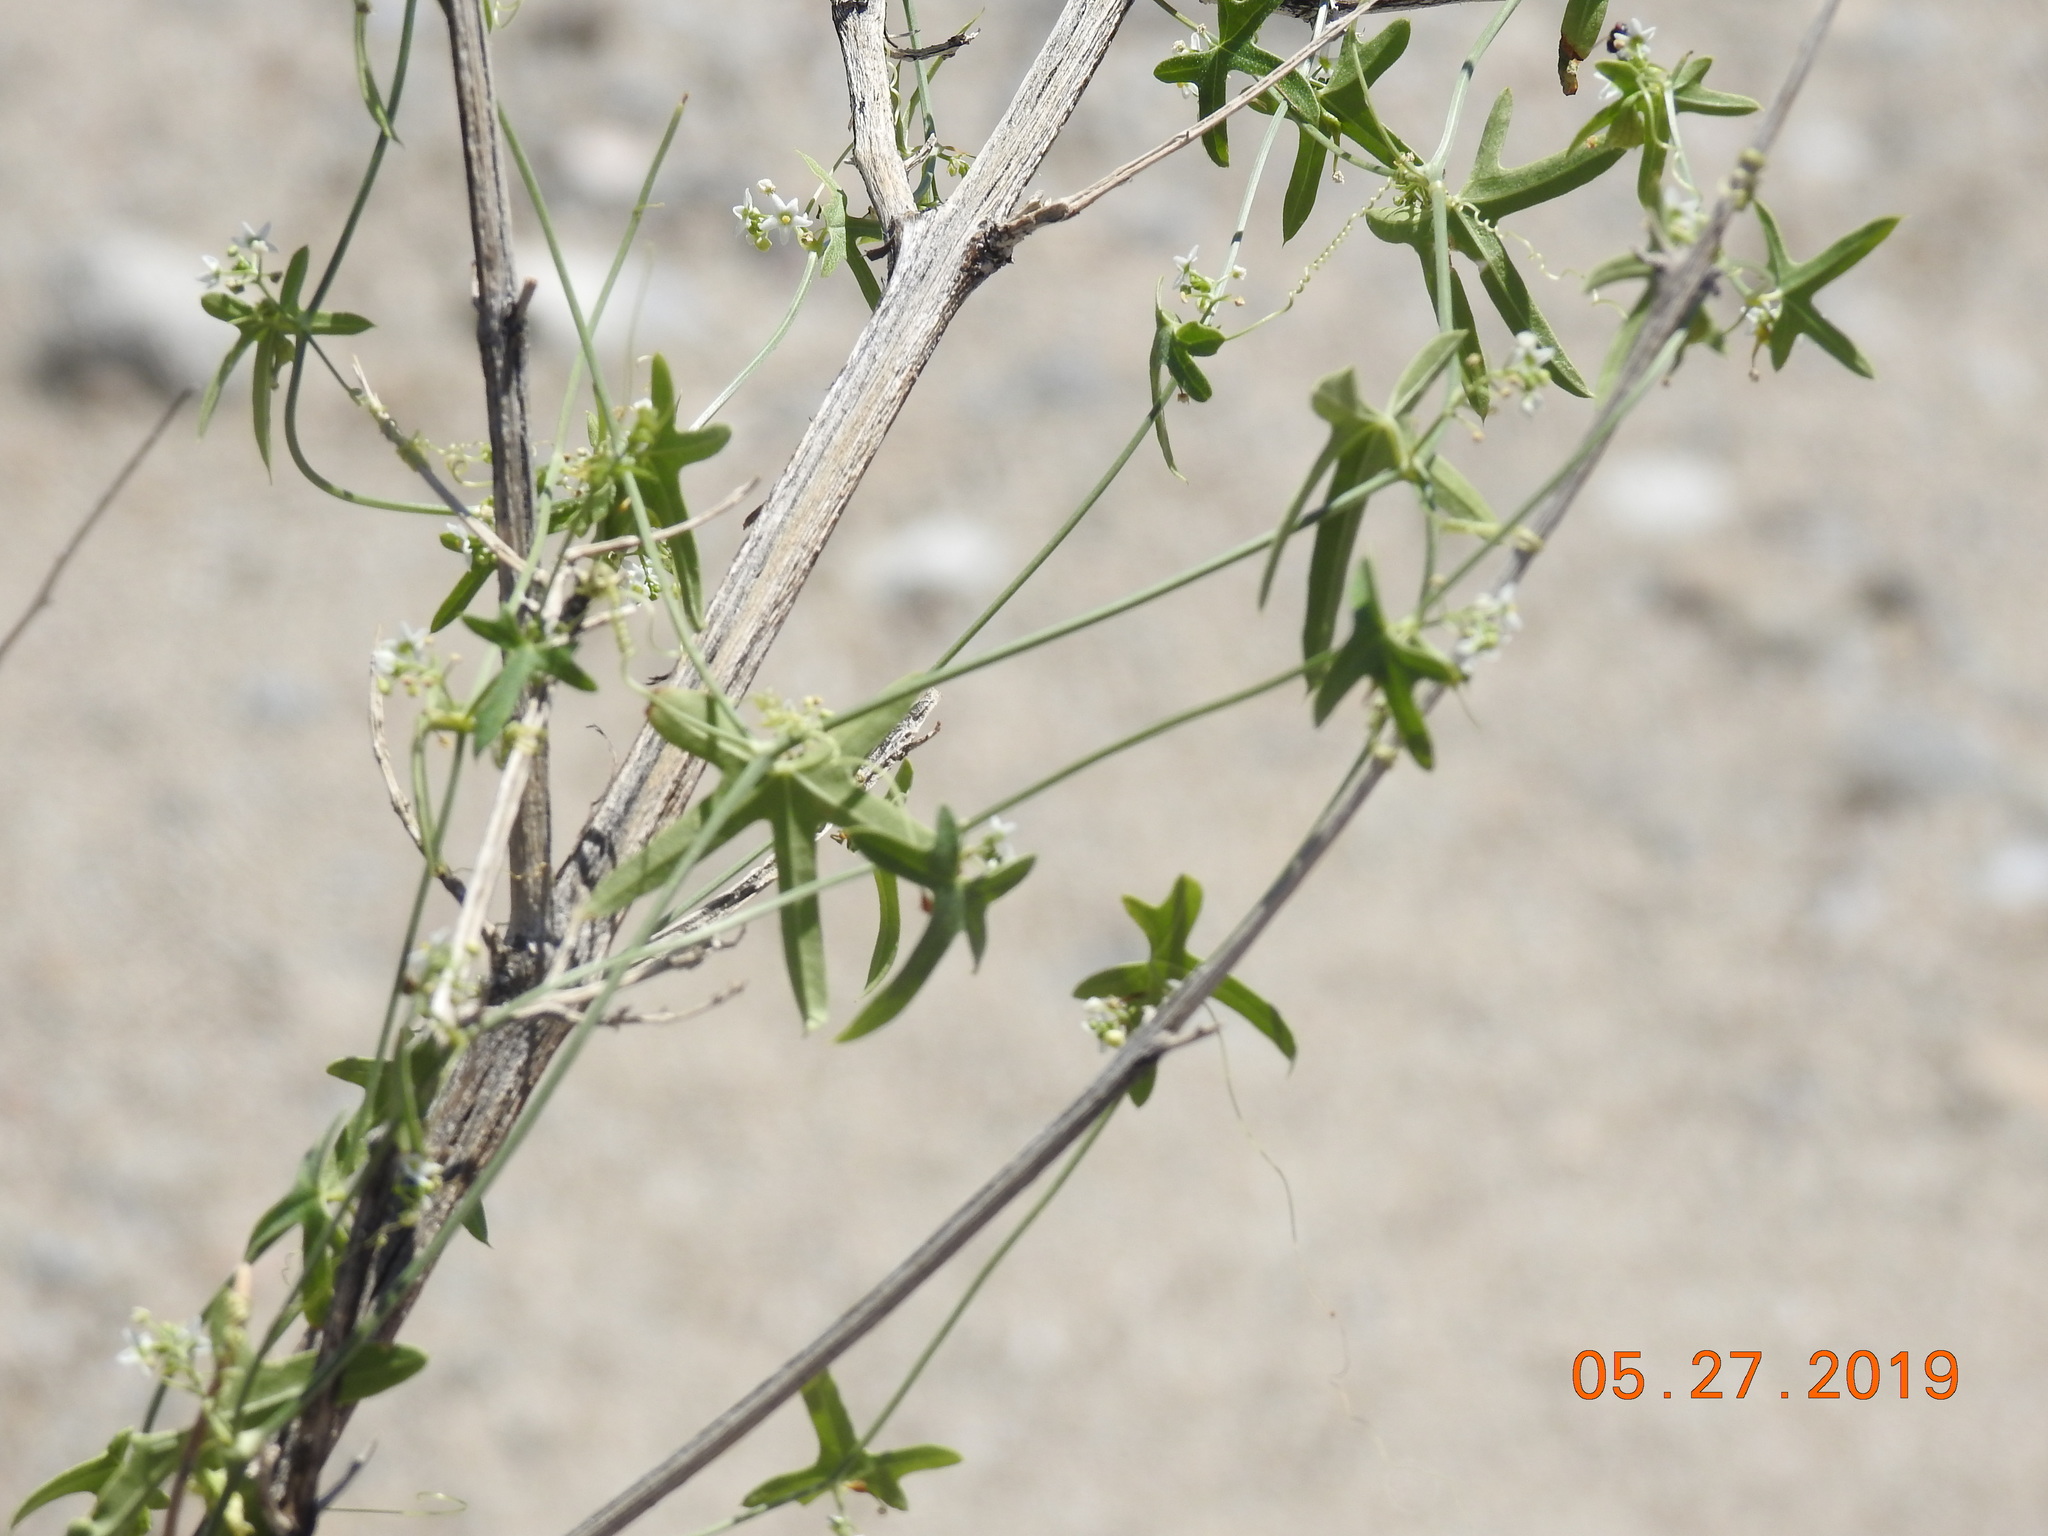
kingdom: Plantae
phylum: Tracheophyta
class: Magnoliopsida
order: Cucurbitales
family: Cucurbitaceae
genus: Echinopepon
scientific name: Echinopepon bigelovii
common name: Desert starvine
